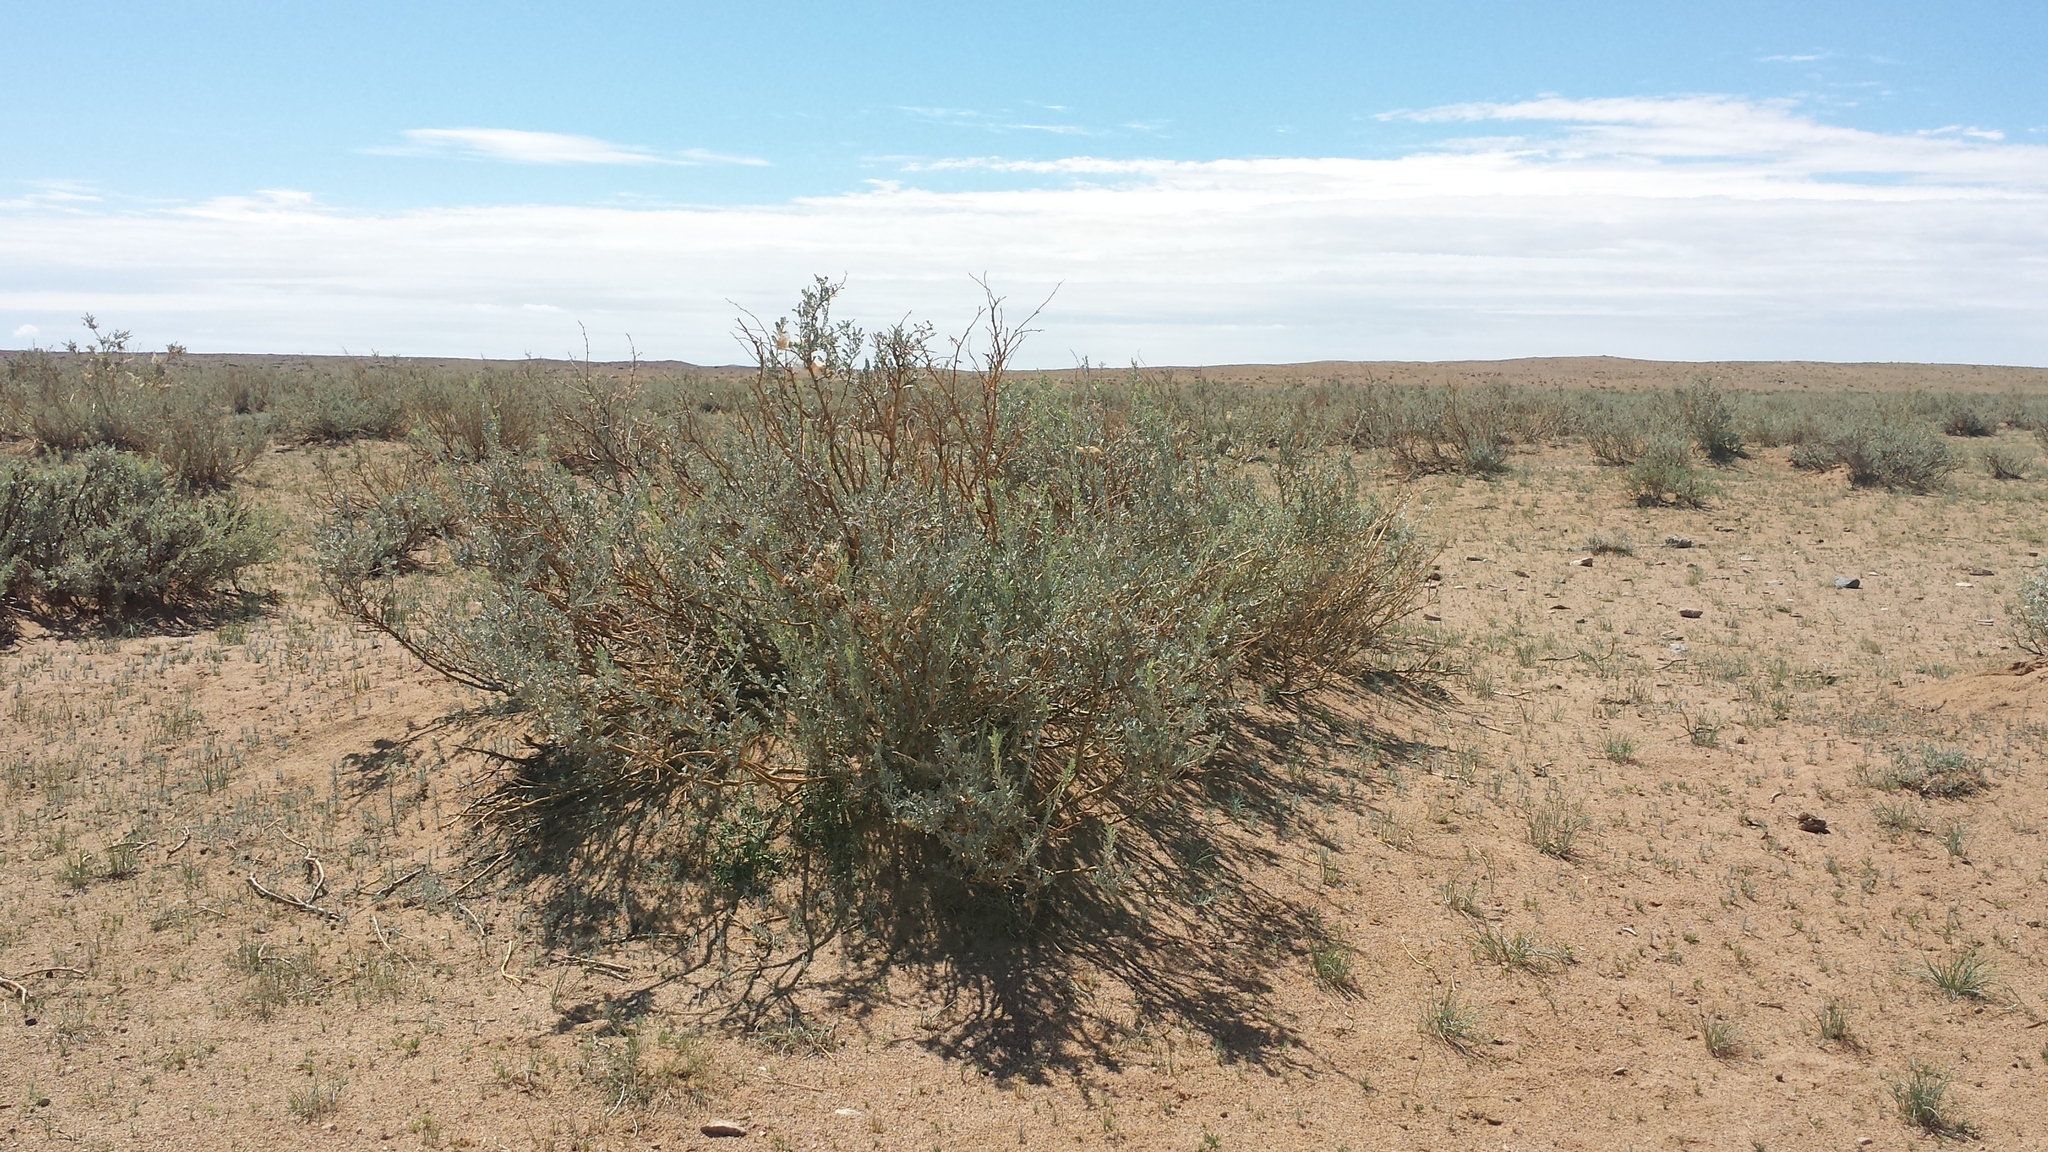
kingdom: Plantae
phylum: Tracheophyta
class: Magnoliopsida
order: Fabales
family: Fabaceae
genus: Caragana
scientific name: Caragana brachypoda
